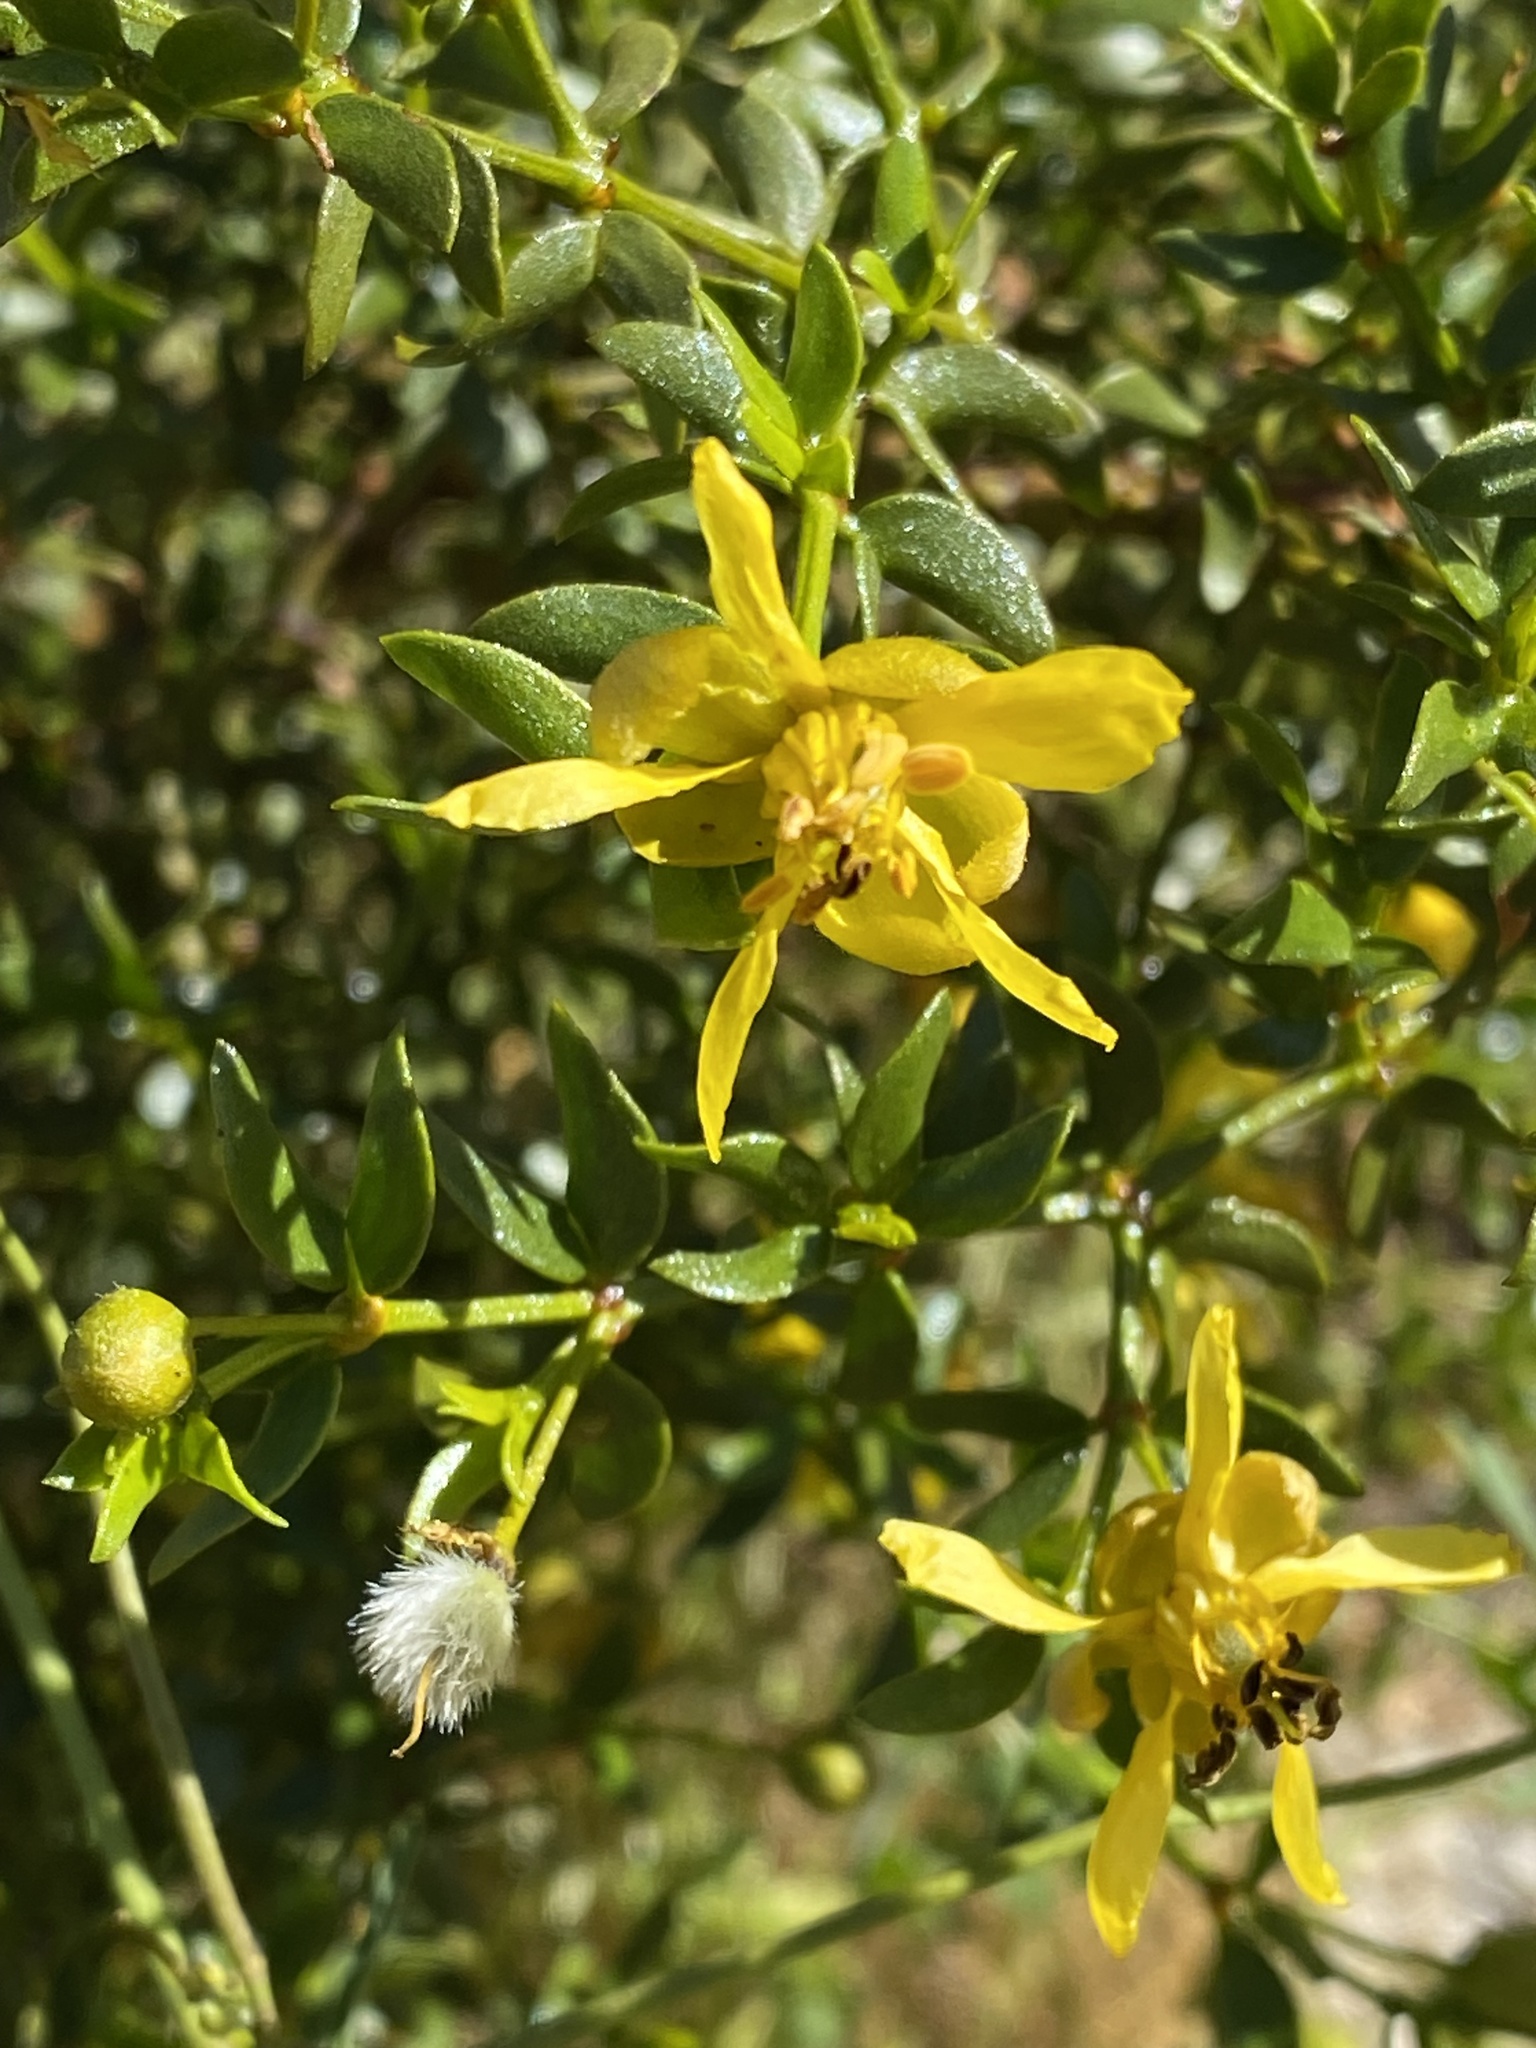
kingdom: Plantae
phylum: Tracheophyta
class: Magnoliopsida
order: Zygophyllales
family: Zygophyllaceae
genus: Larrea
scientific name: Larrea tridentata
